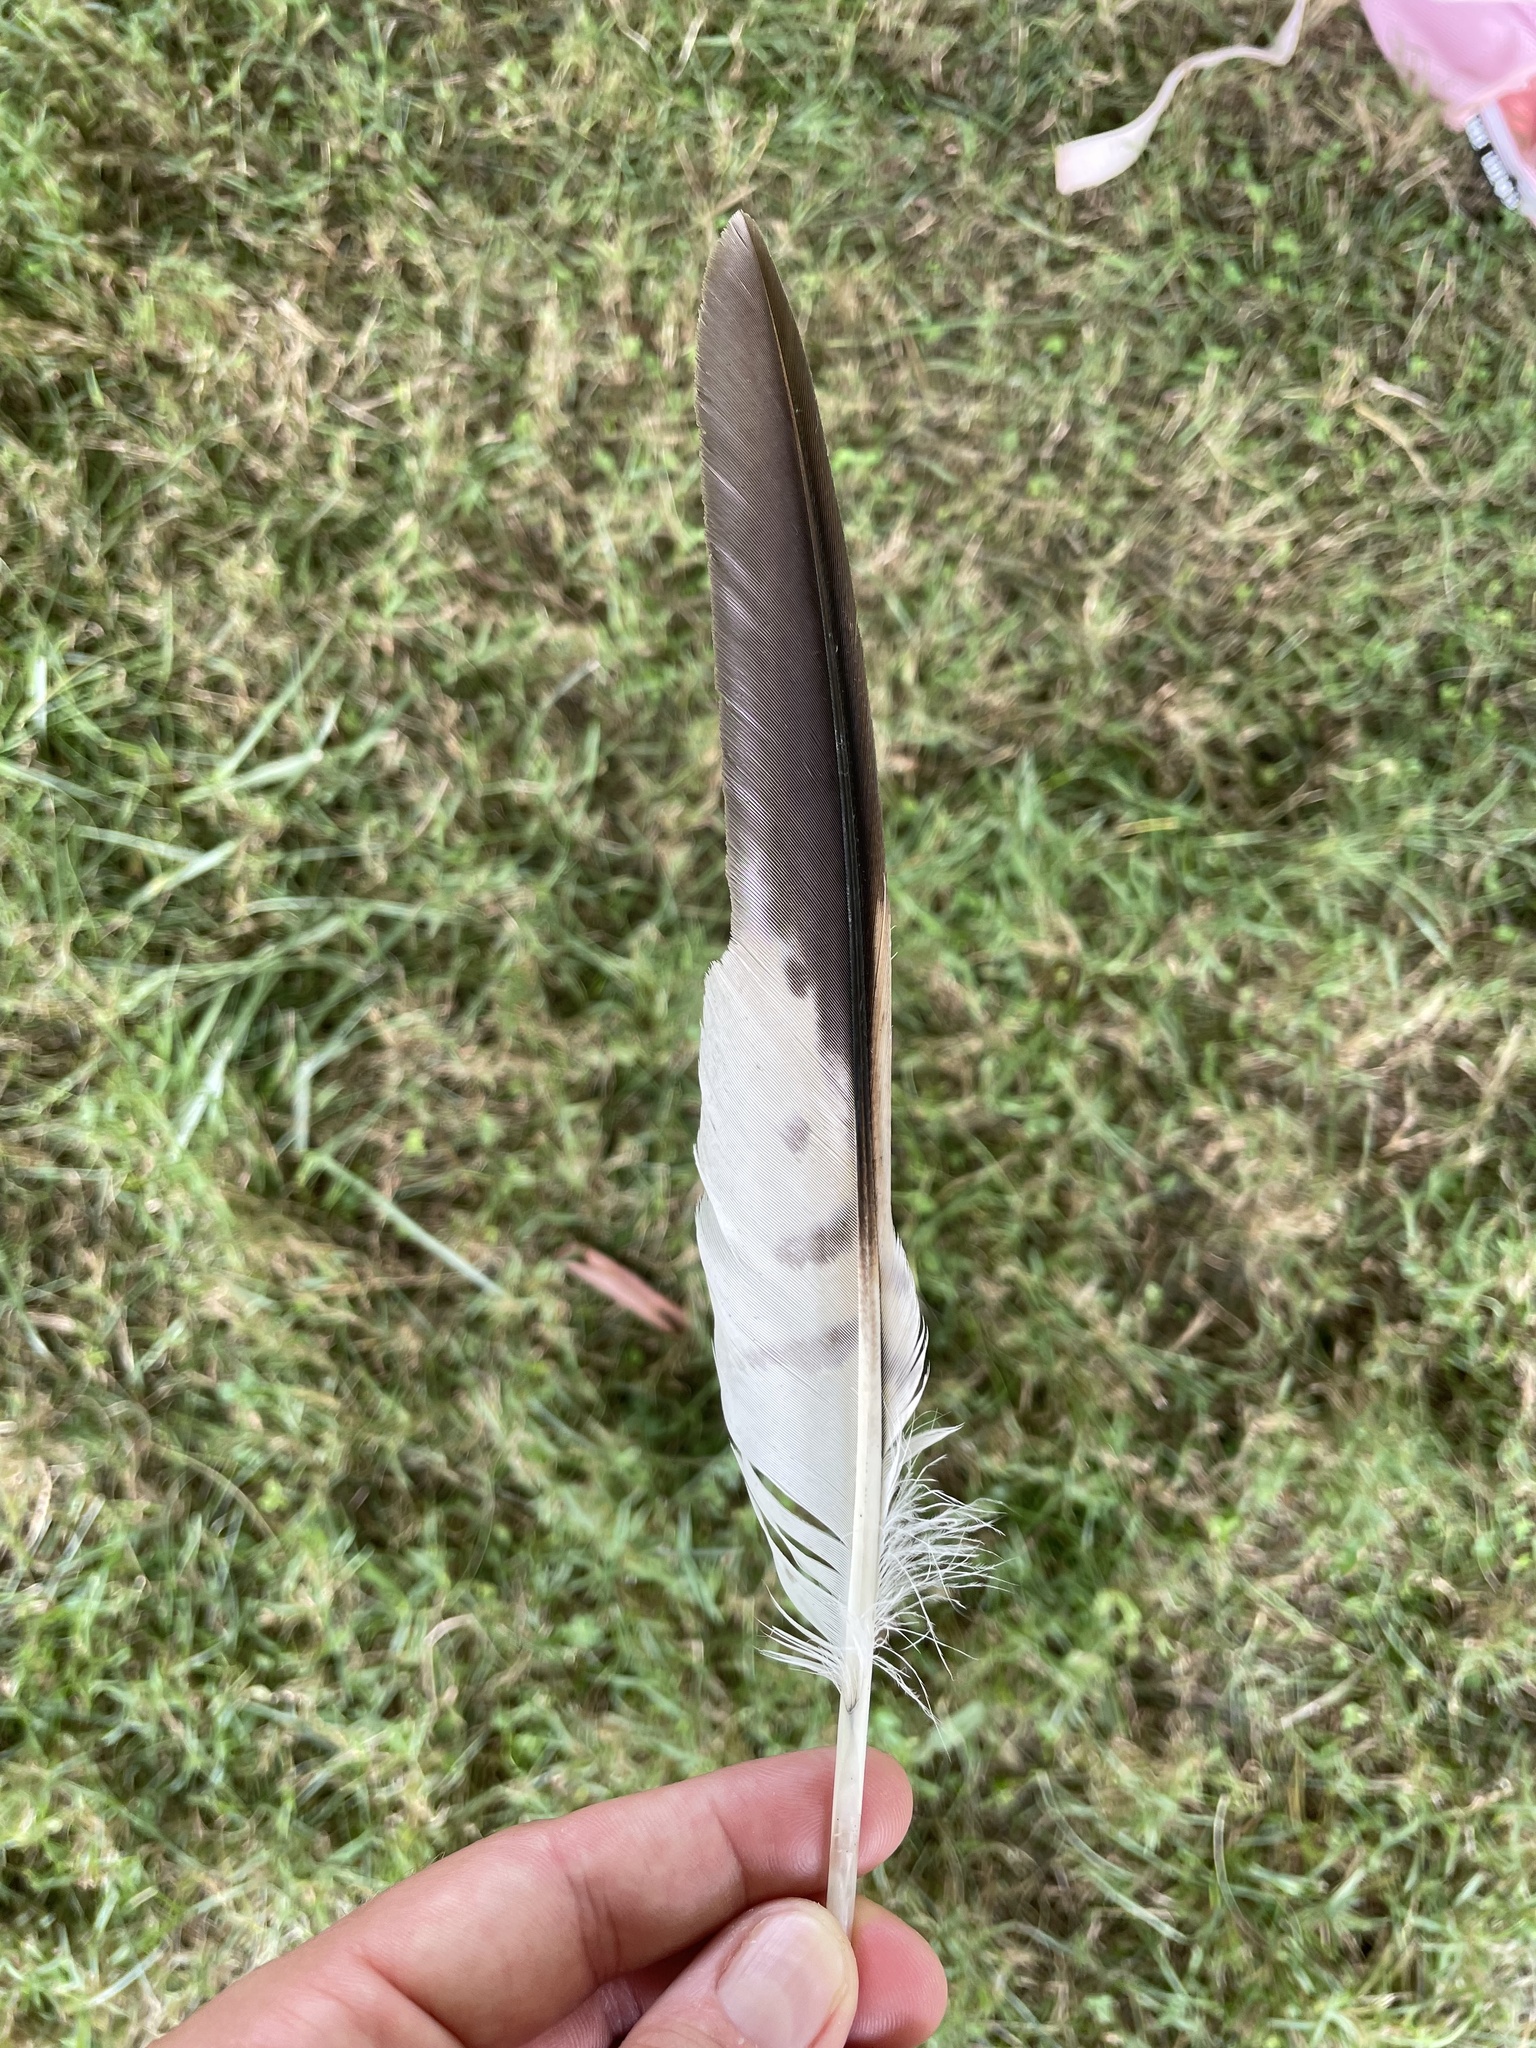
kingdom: Animalia
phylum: Chordata
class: Aves
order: Accipitriformes
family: Accipitridae
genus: Buteo
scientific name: Buteo lineatus
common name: Red-shouldered hawk
